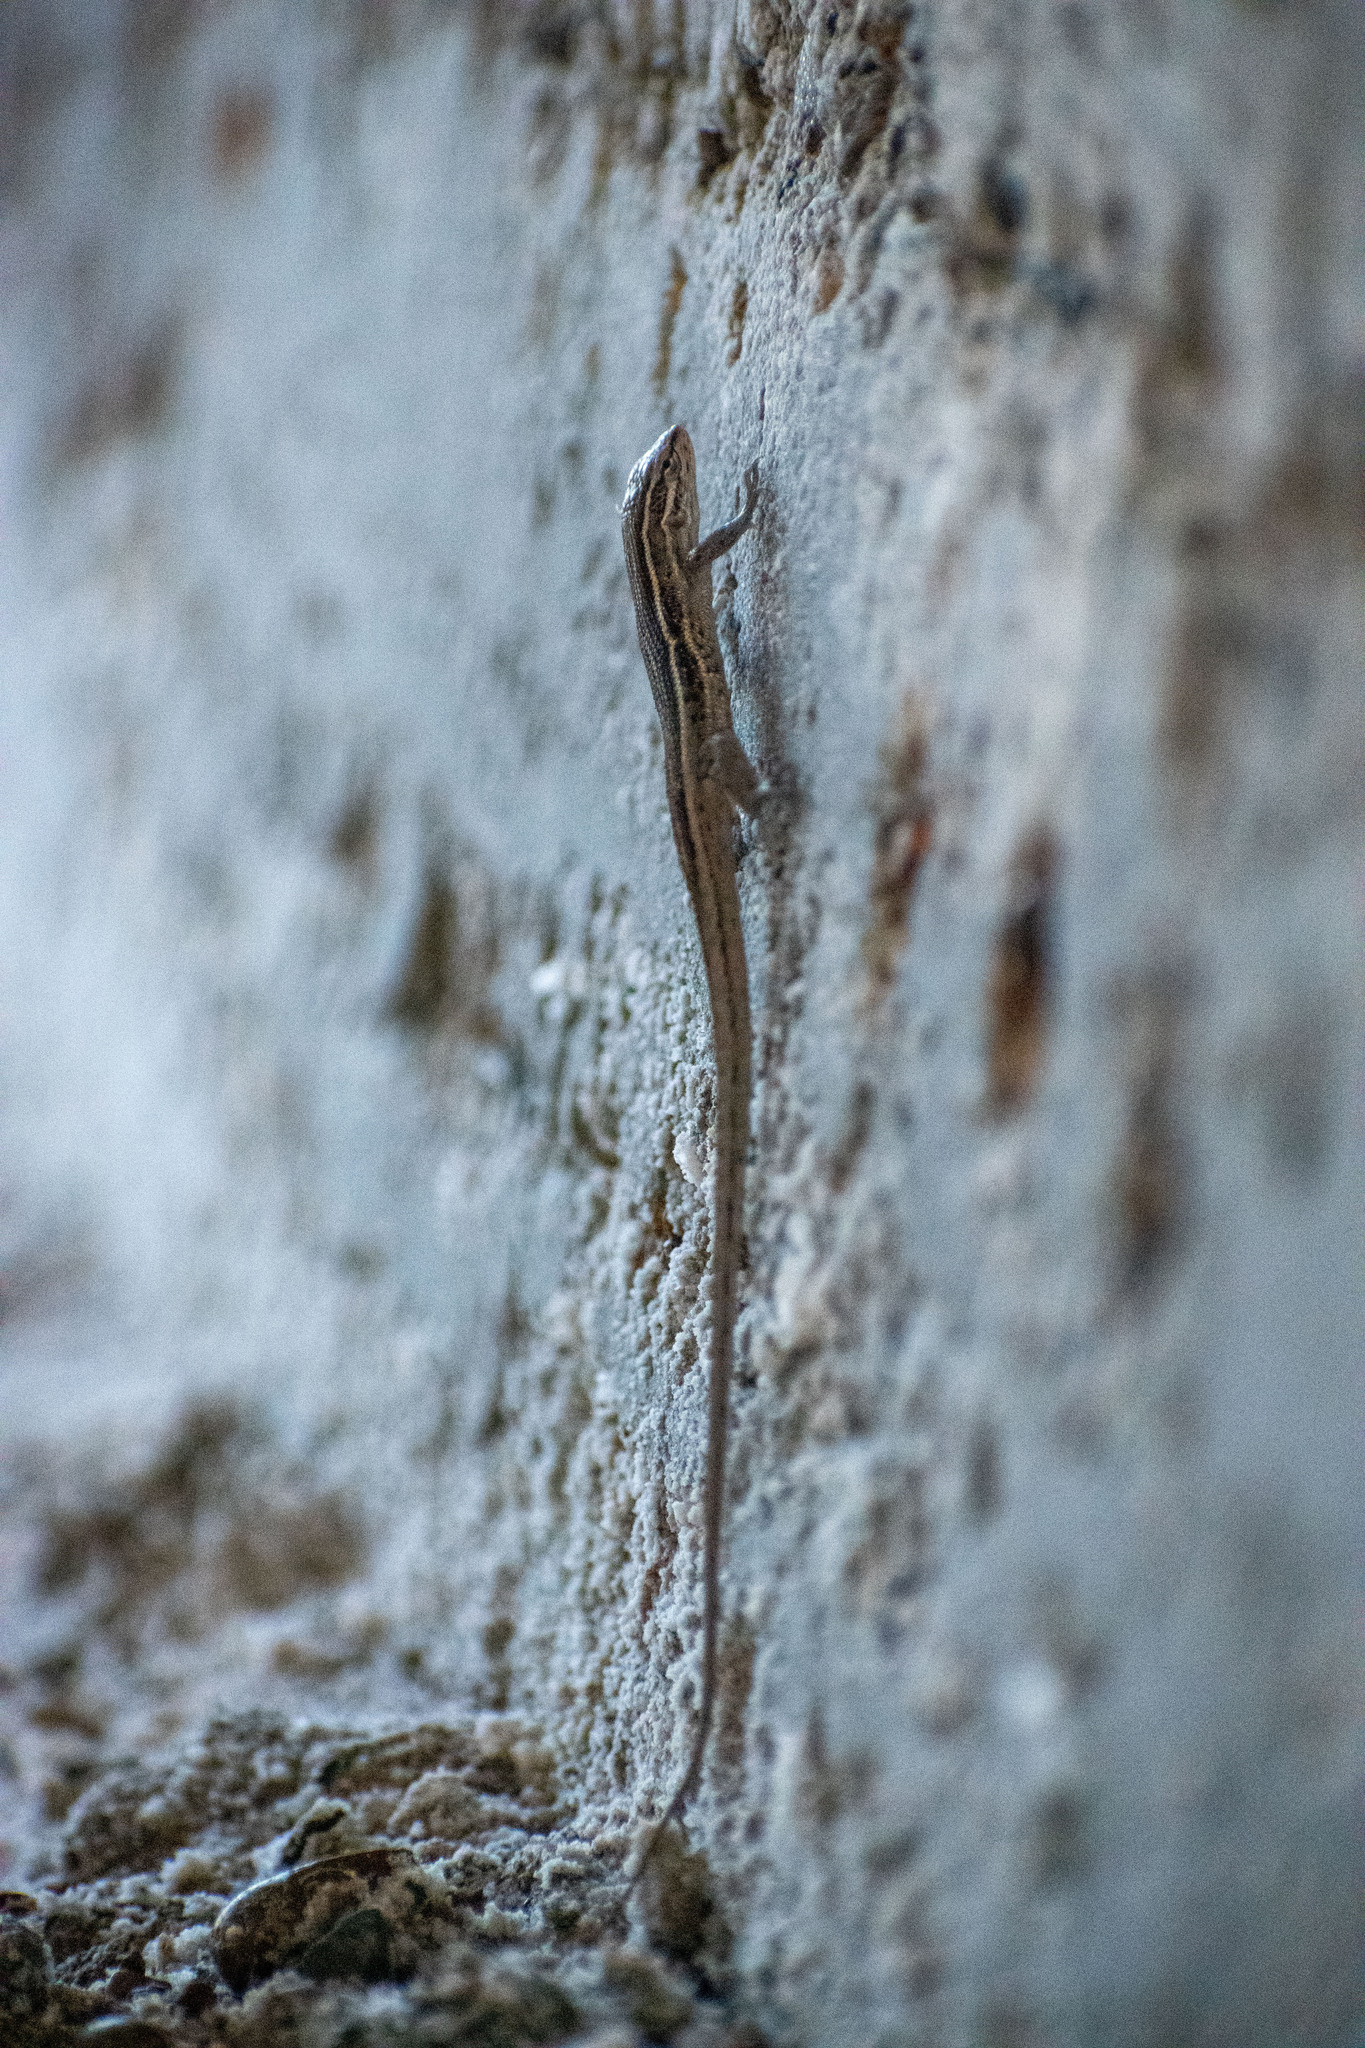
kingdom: Animalia
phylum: Chordata
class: Squamata
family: Liolaemidae
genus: Liolaemus
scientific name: Liolaemus gracilis
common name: Graceful tree iguana
